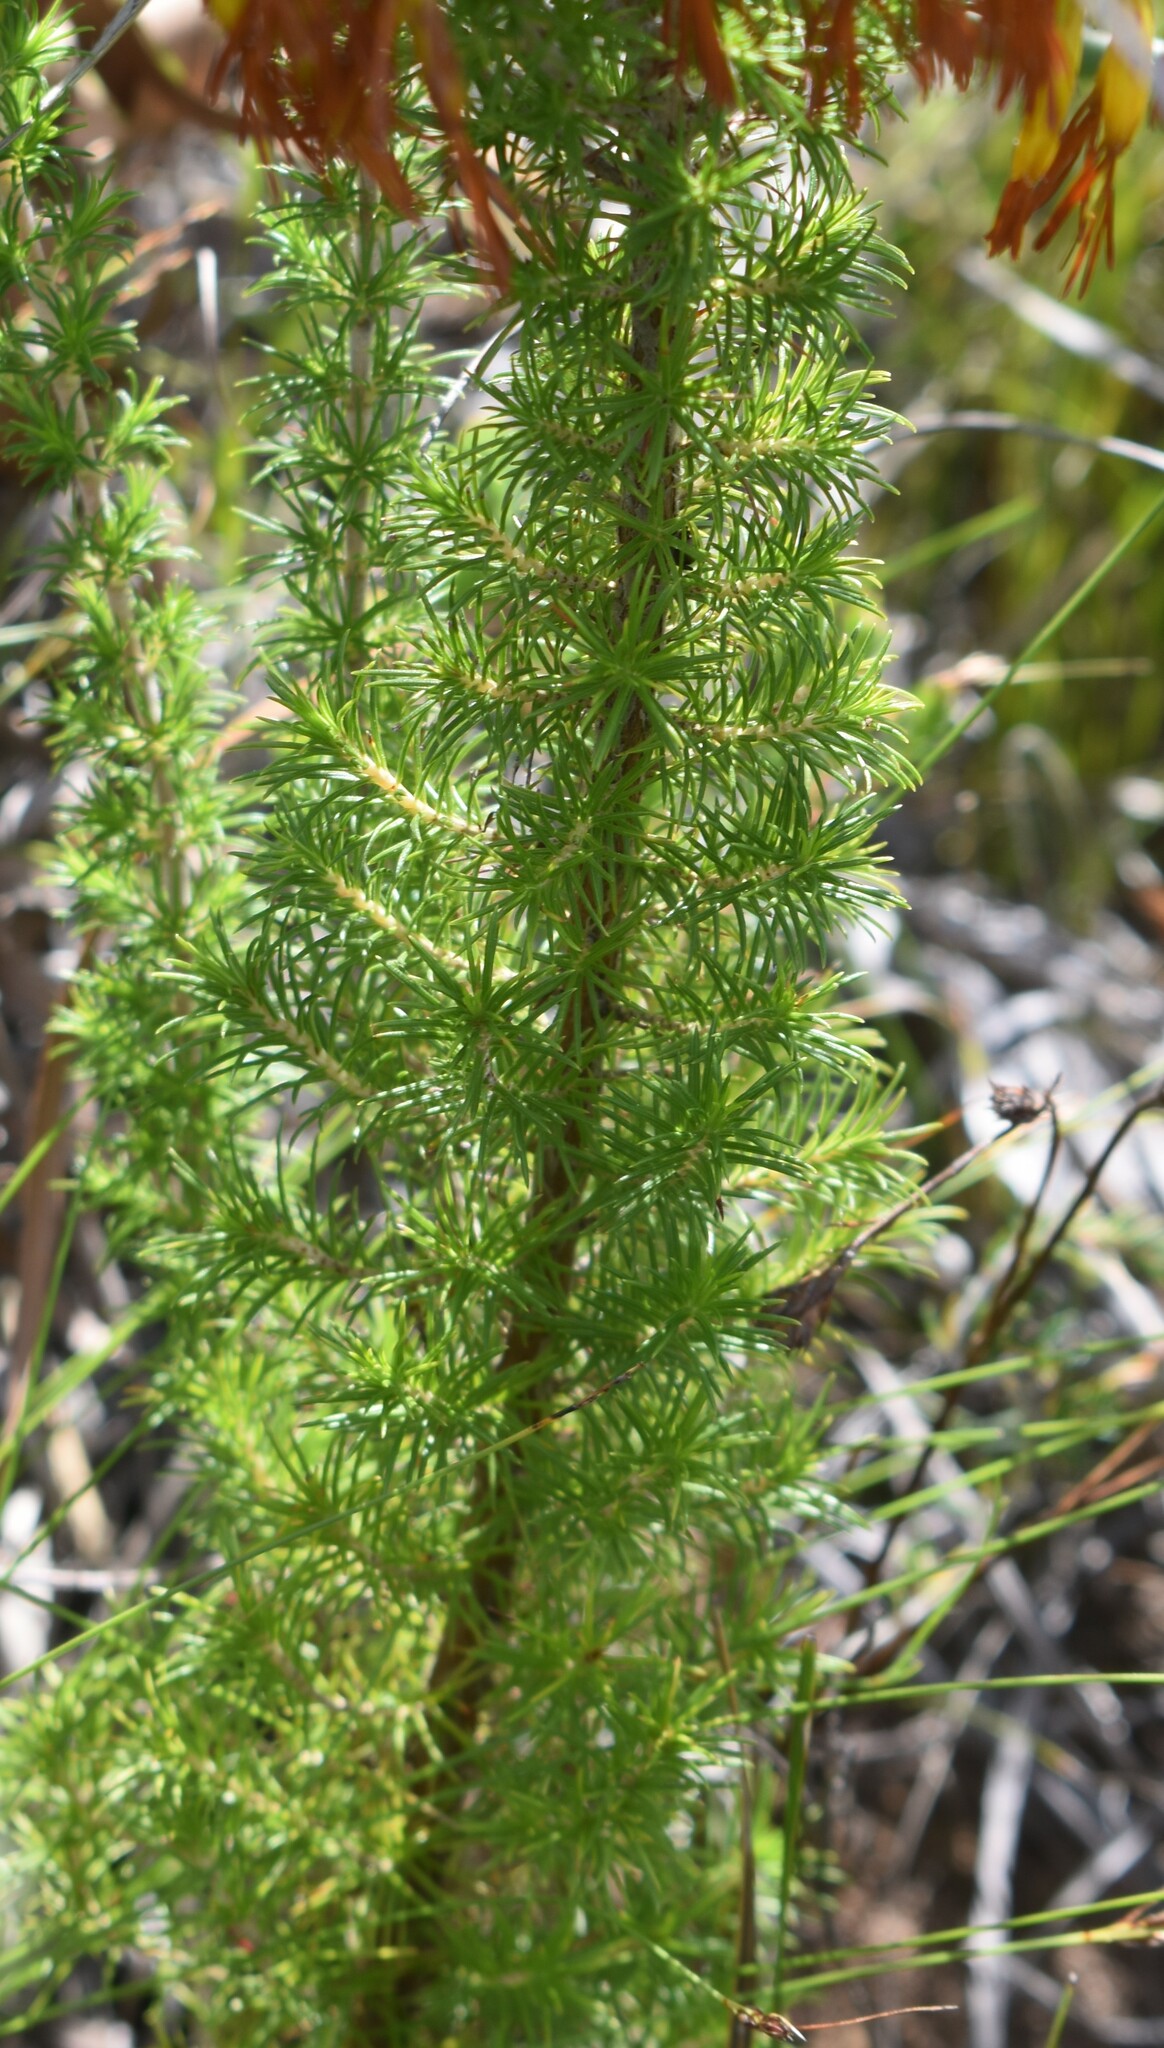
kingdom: Plantae
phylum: Tracheophyta
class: Magnoliopsida
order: Ericales
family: Ericaceae
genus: Erica
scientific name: Erica coccinea
